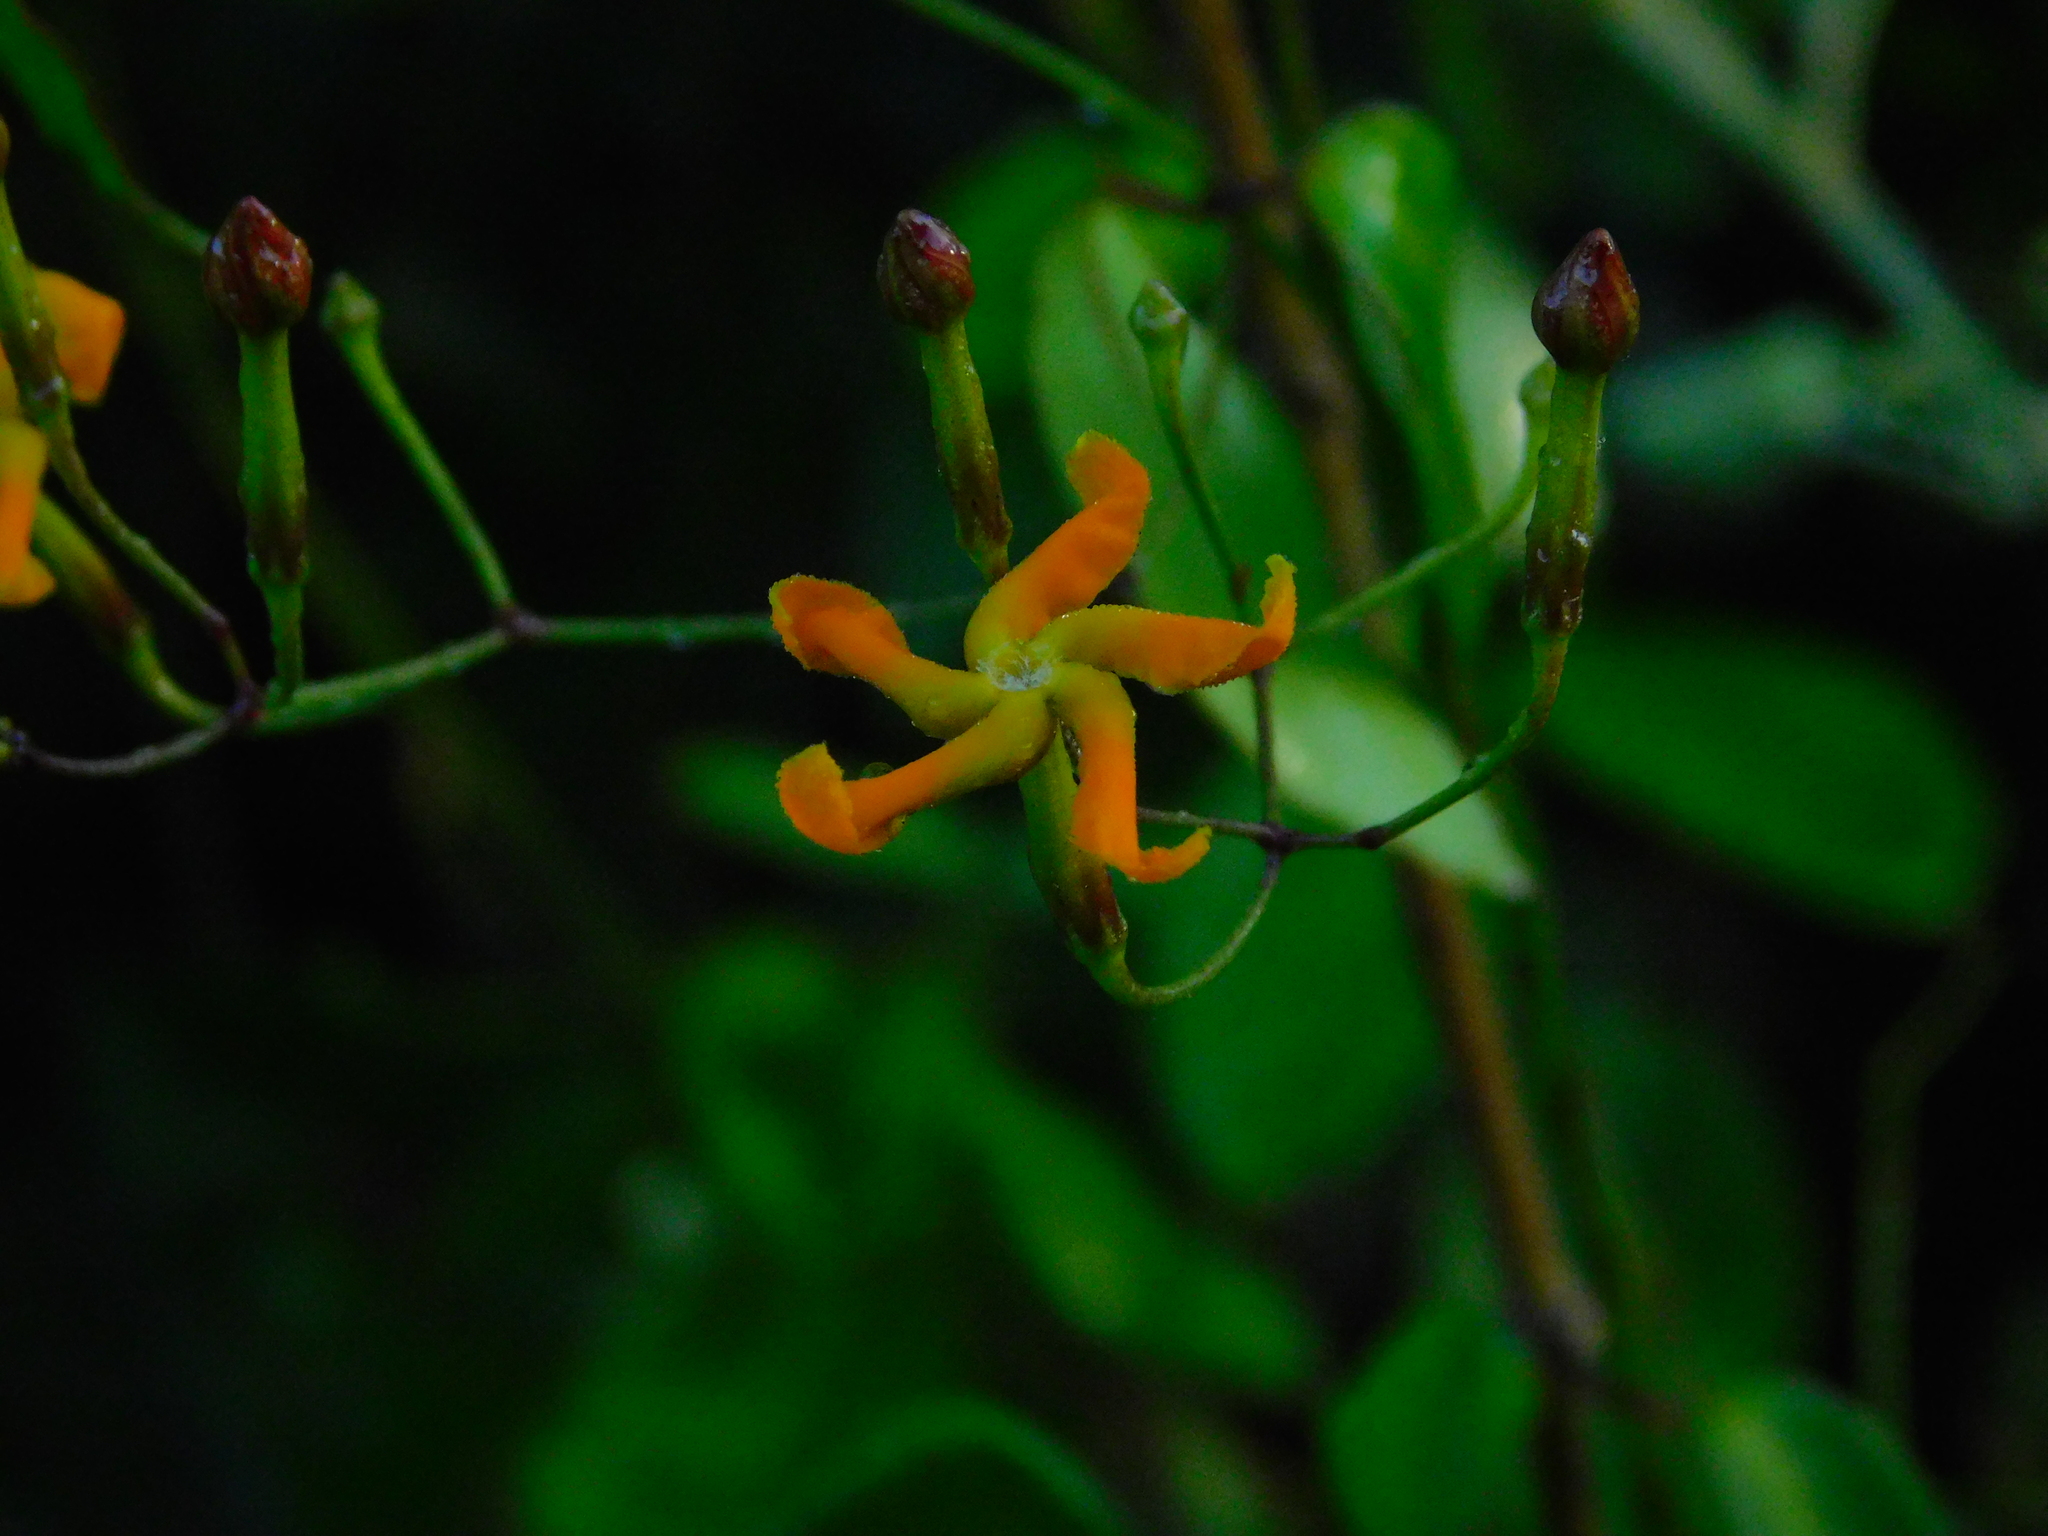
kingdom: Plantae
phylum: Tracheophyta
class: Magnoliopsida
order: Gentianales
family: Apocynaceae
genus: Echites
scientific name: Echites tuxtlensis
